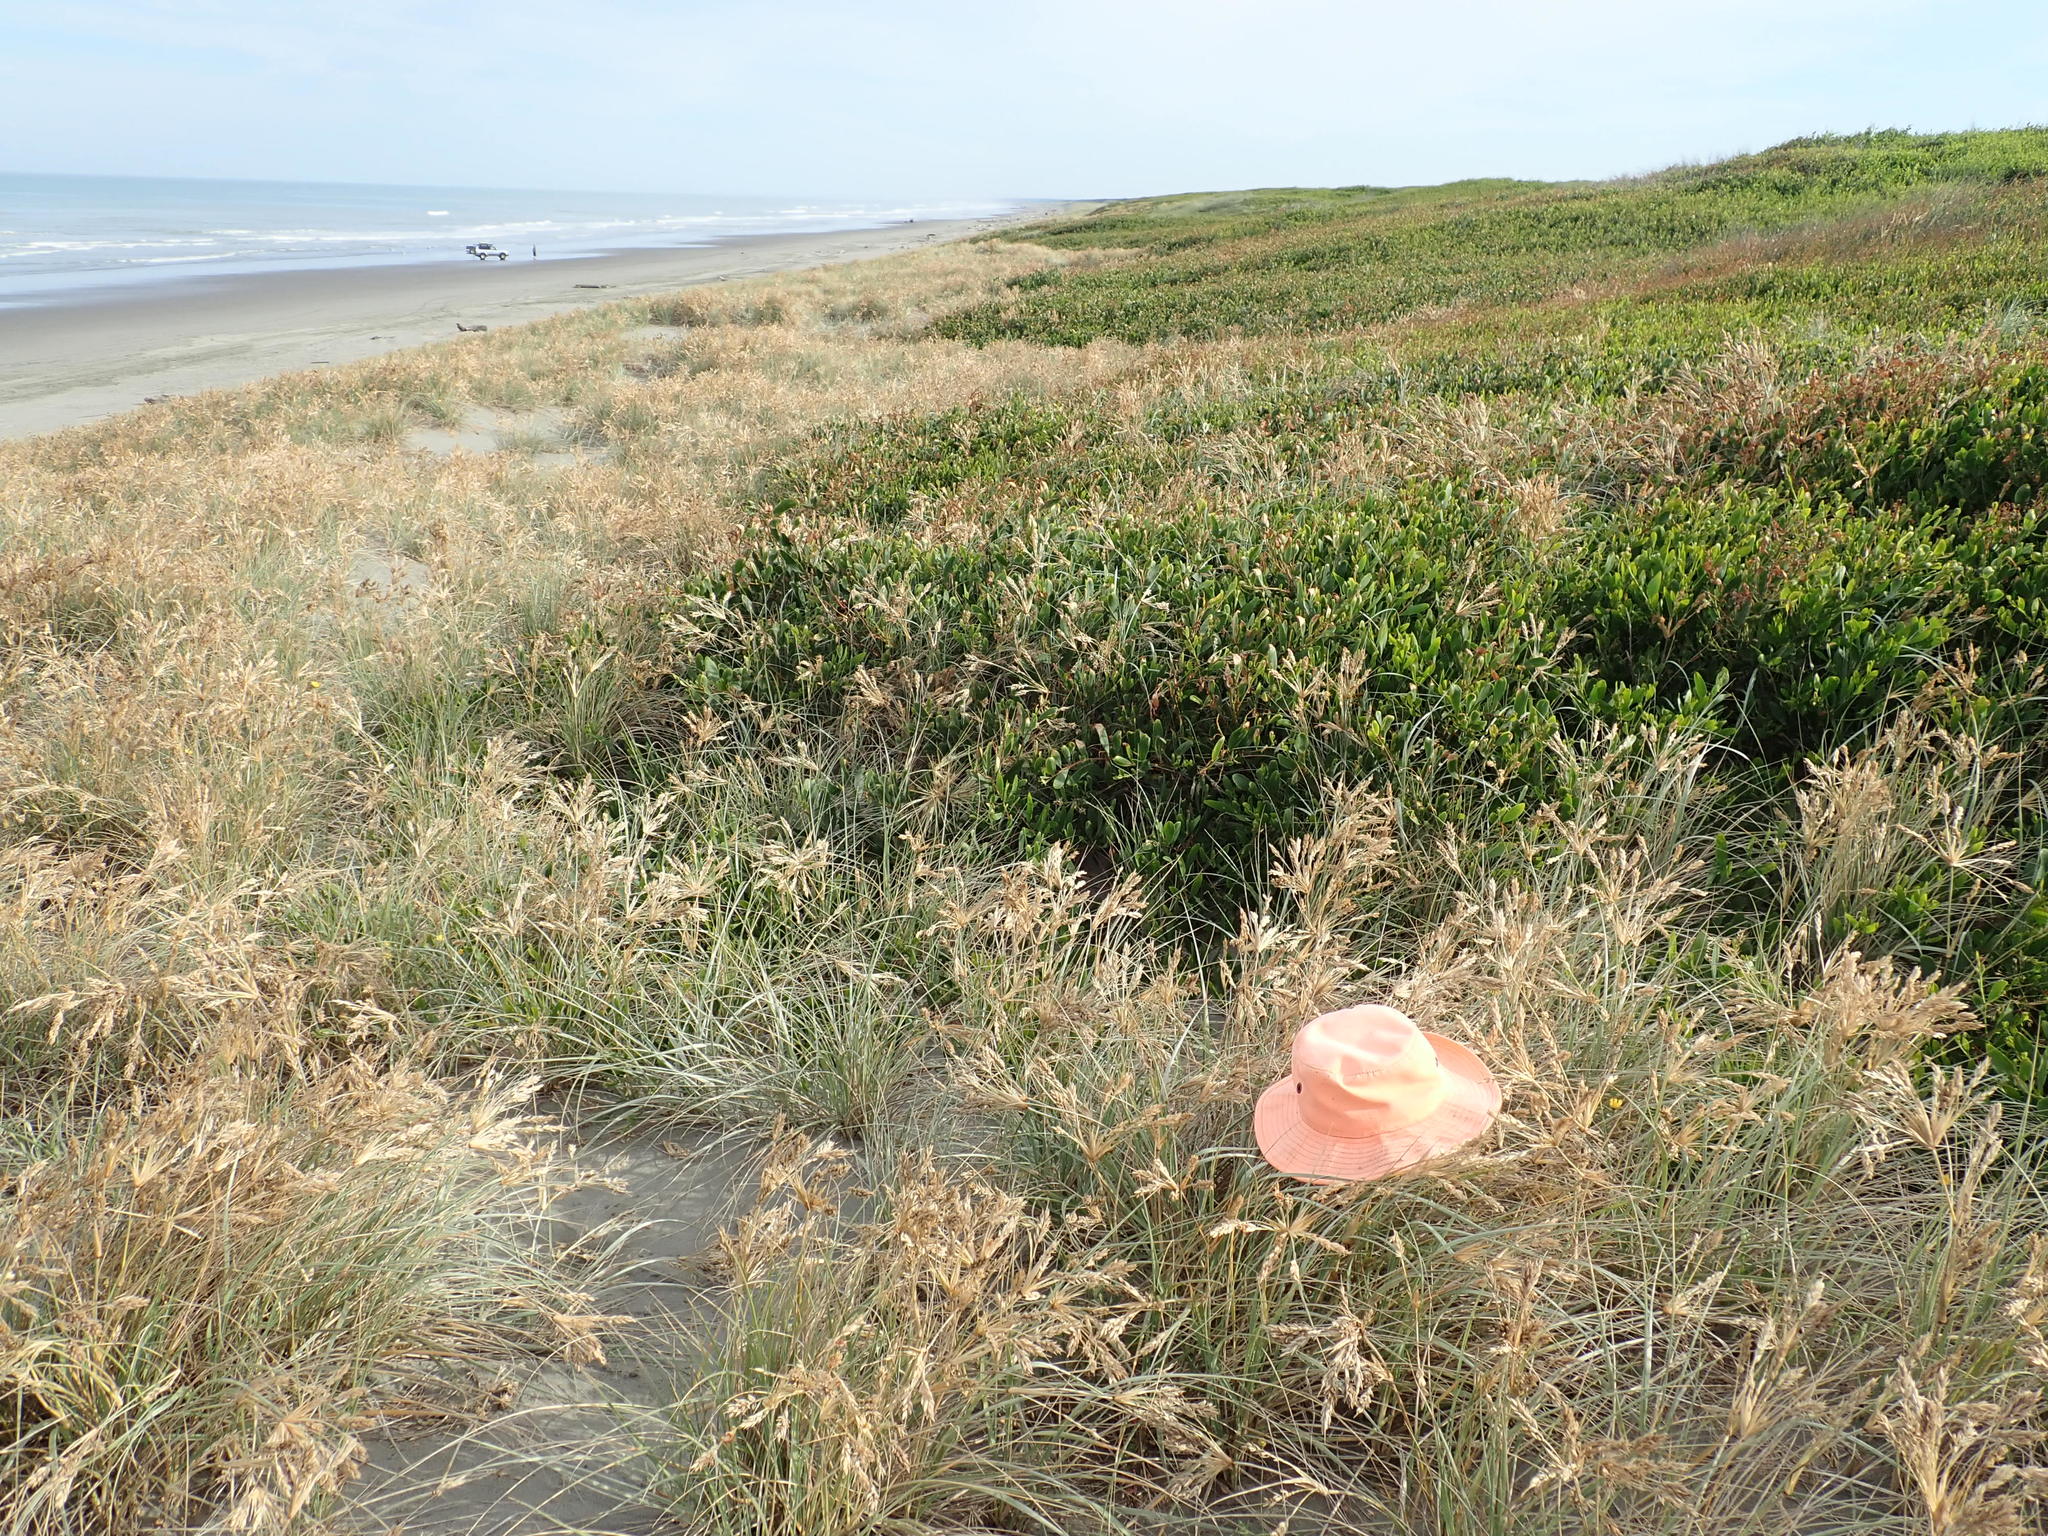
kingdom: Animalia
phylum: Arthropoda
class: Insecta
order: Hemiptera
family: Cicadidae
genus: Rhodopsalta
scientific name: Rhodopsalta leptomera
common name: Sand dune redtail cicada
